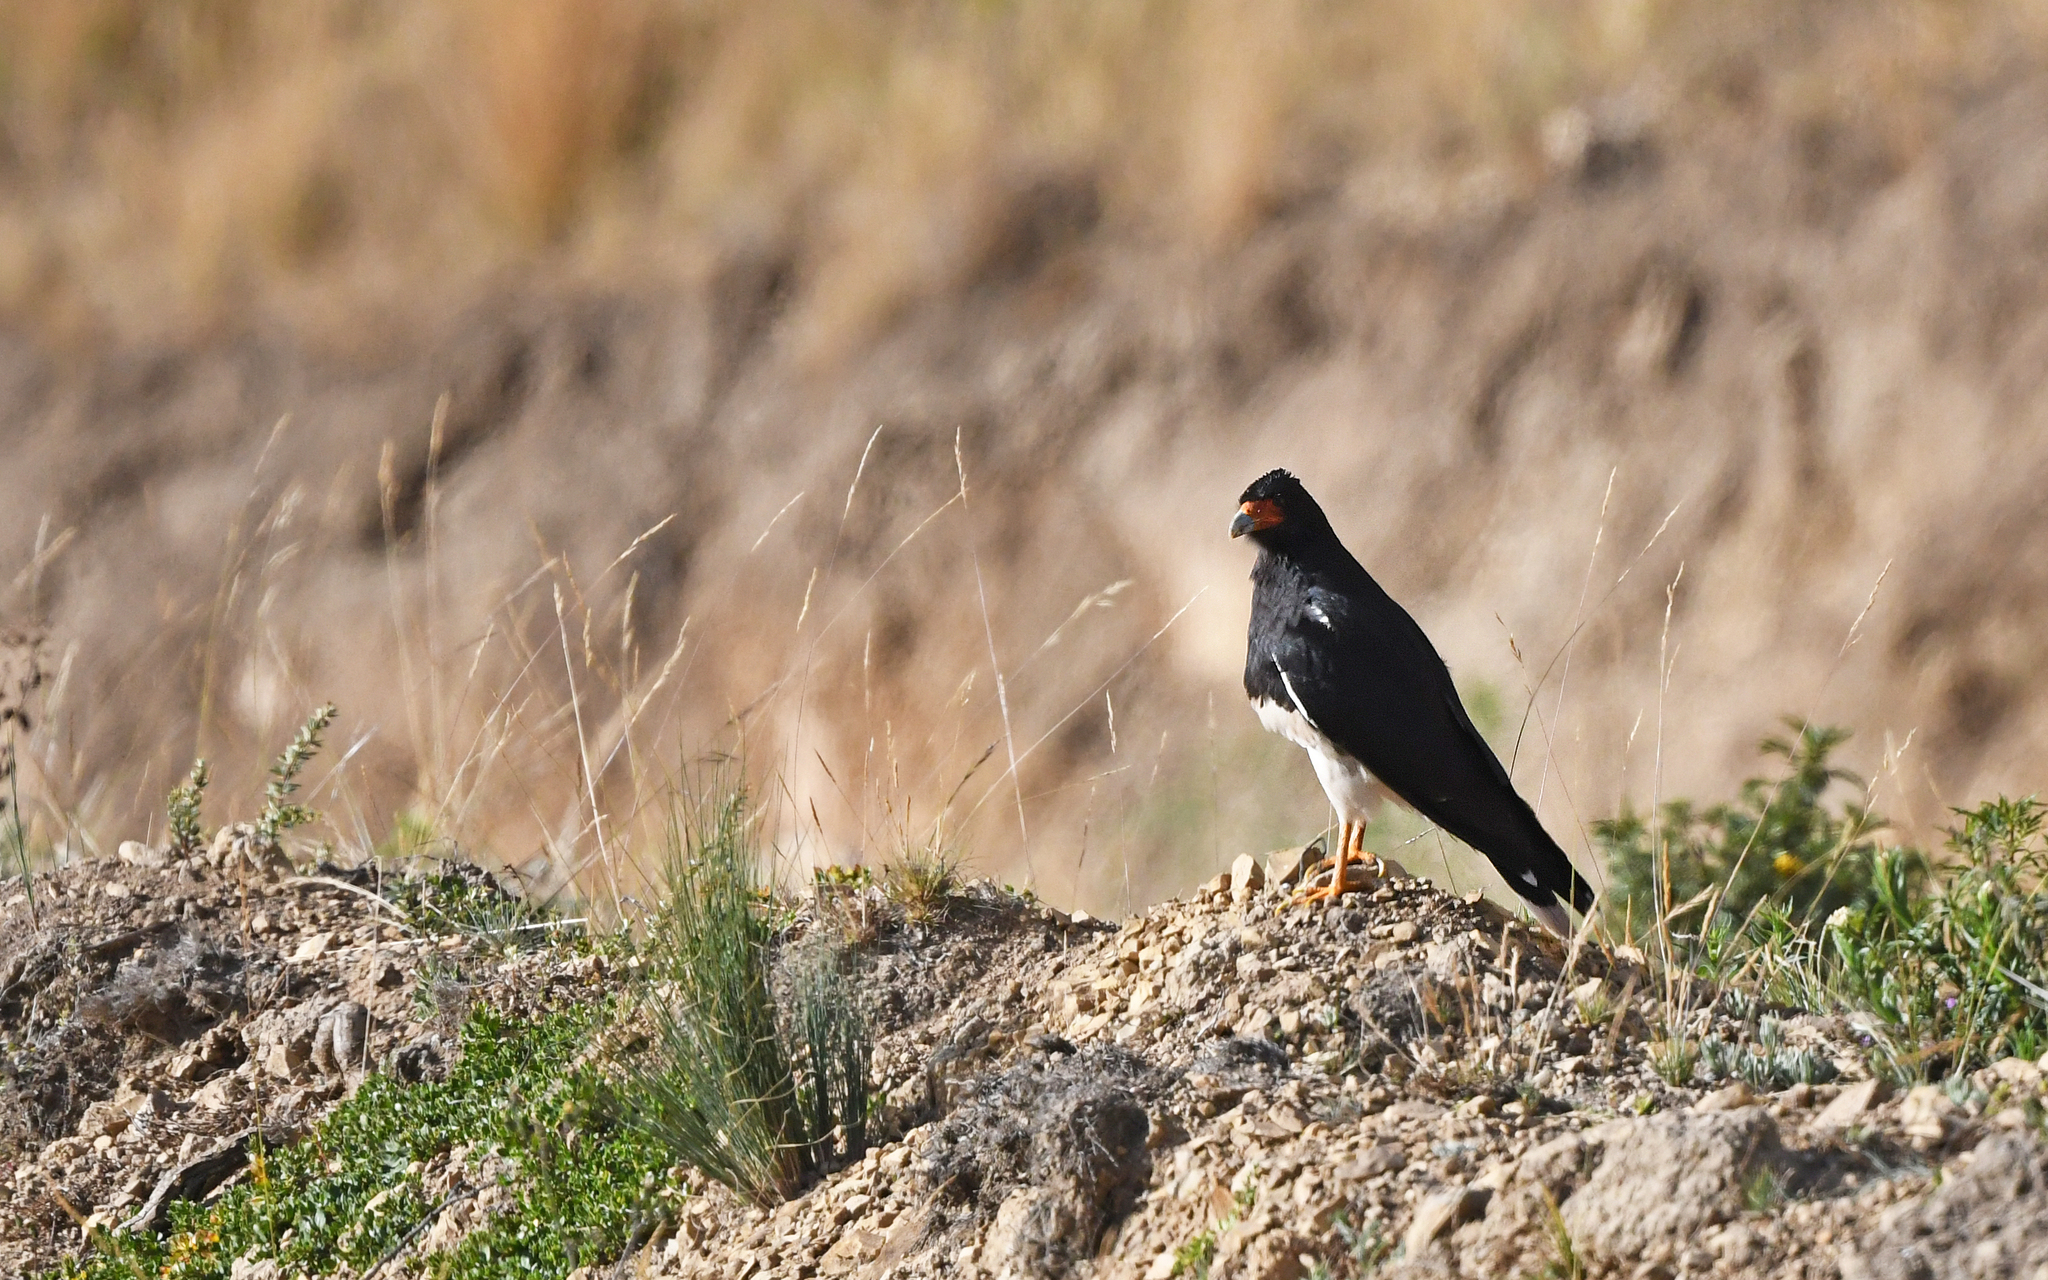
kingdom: Animalia
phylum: Chordata
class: Aves
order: Falconiformes
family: Falconidae
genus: Daptrius
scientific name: Daptrius
